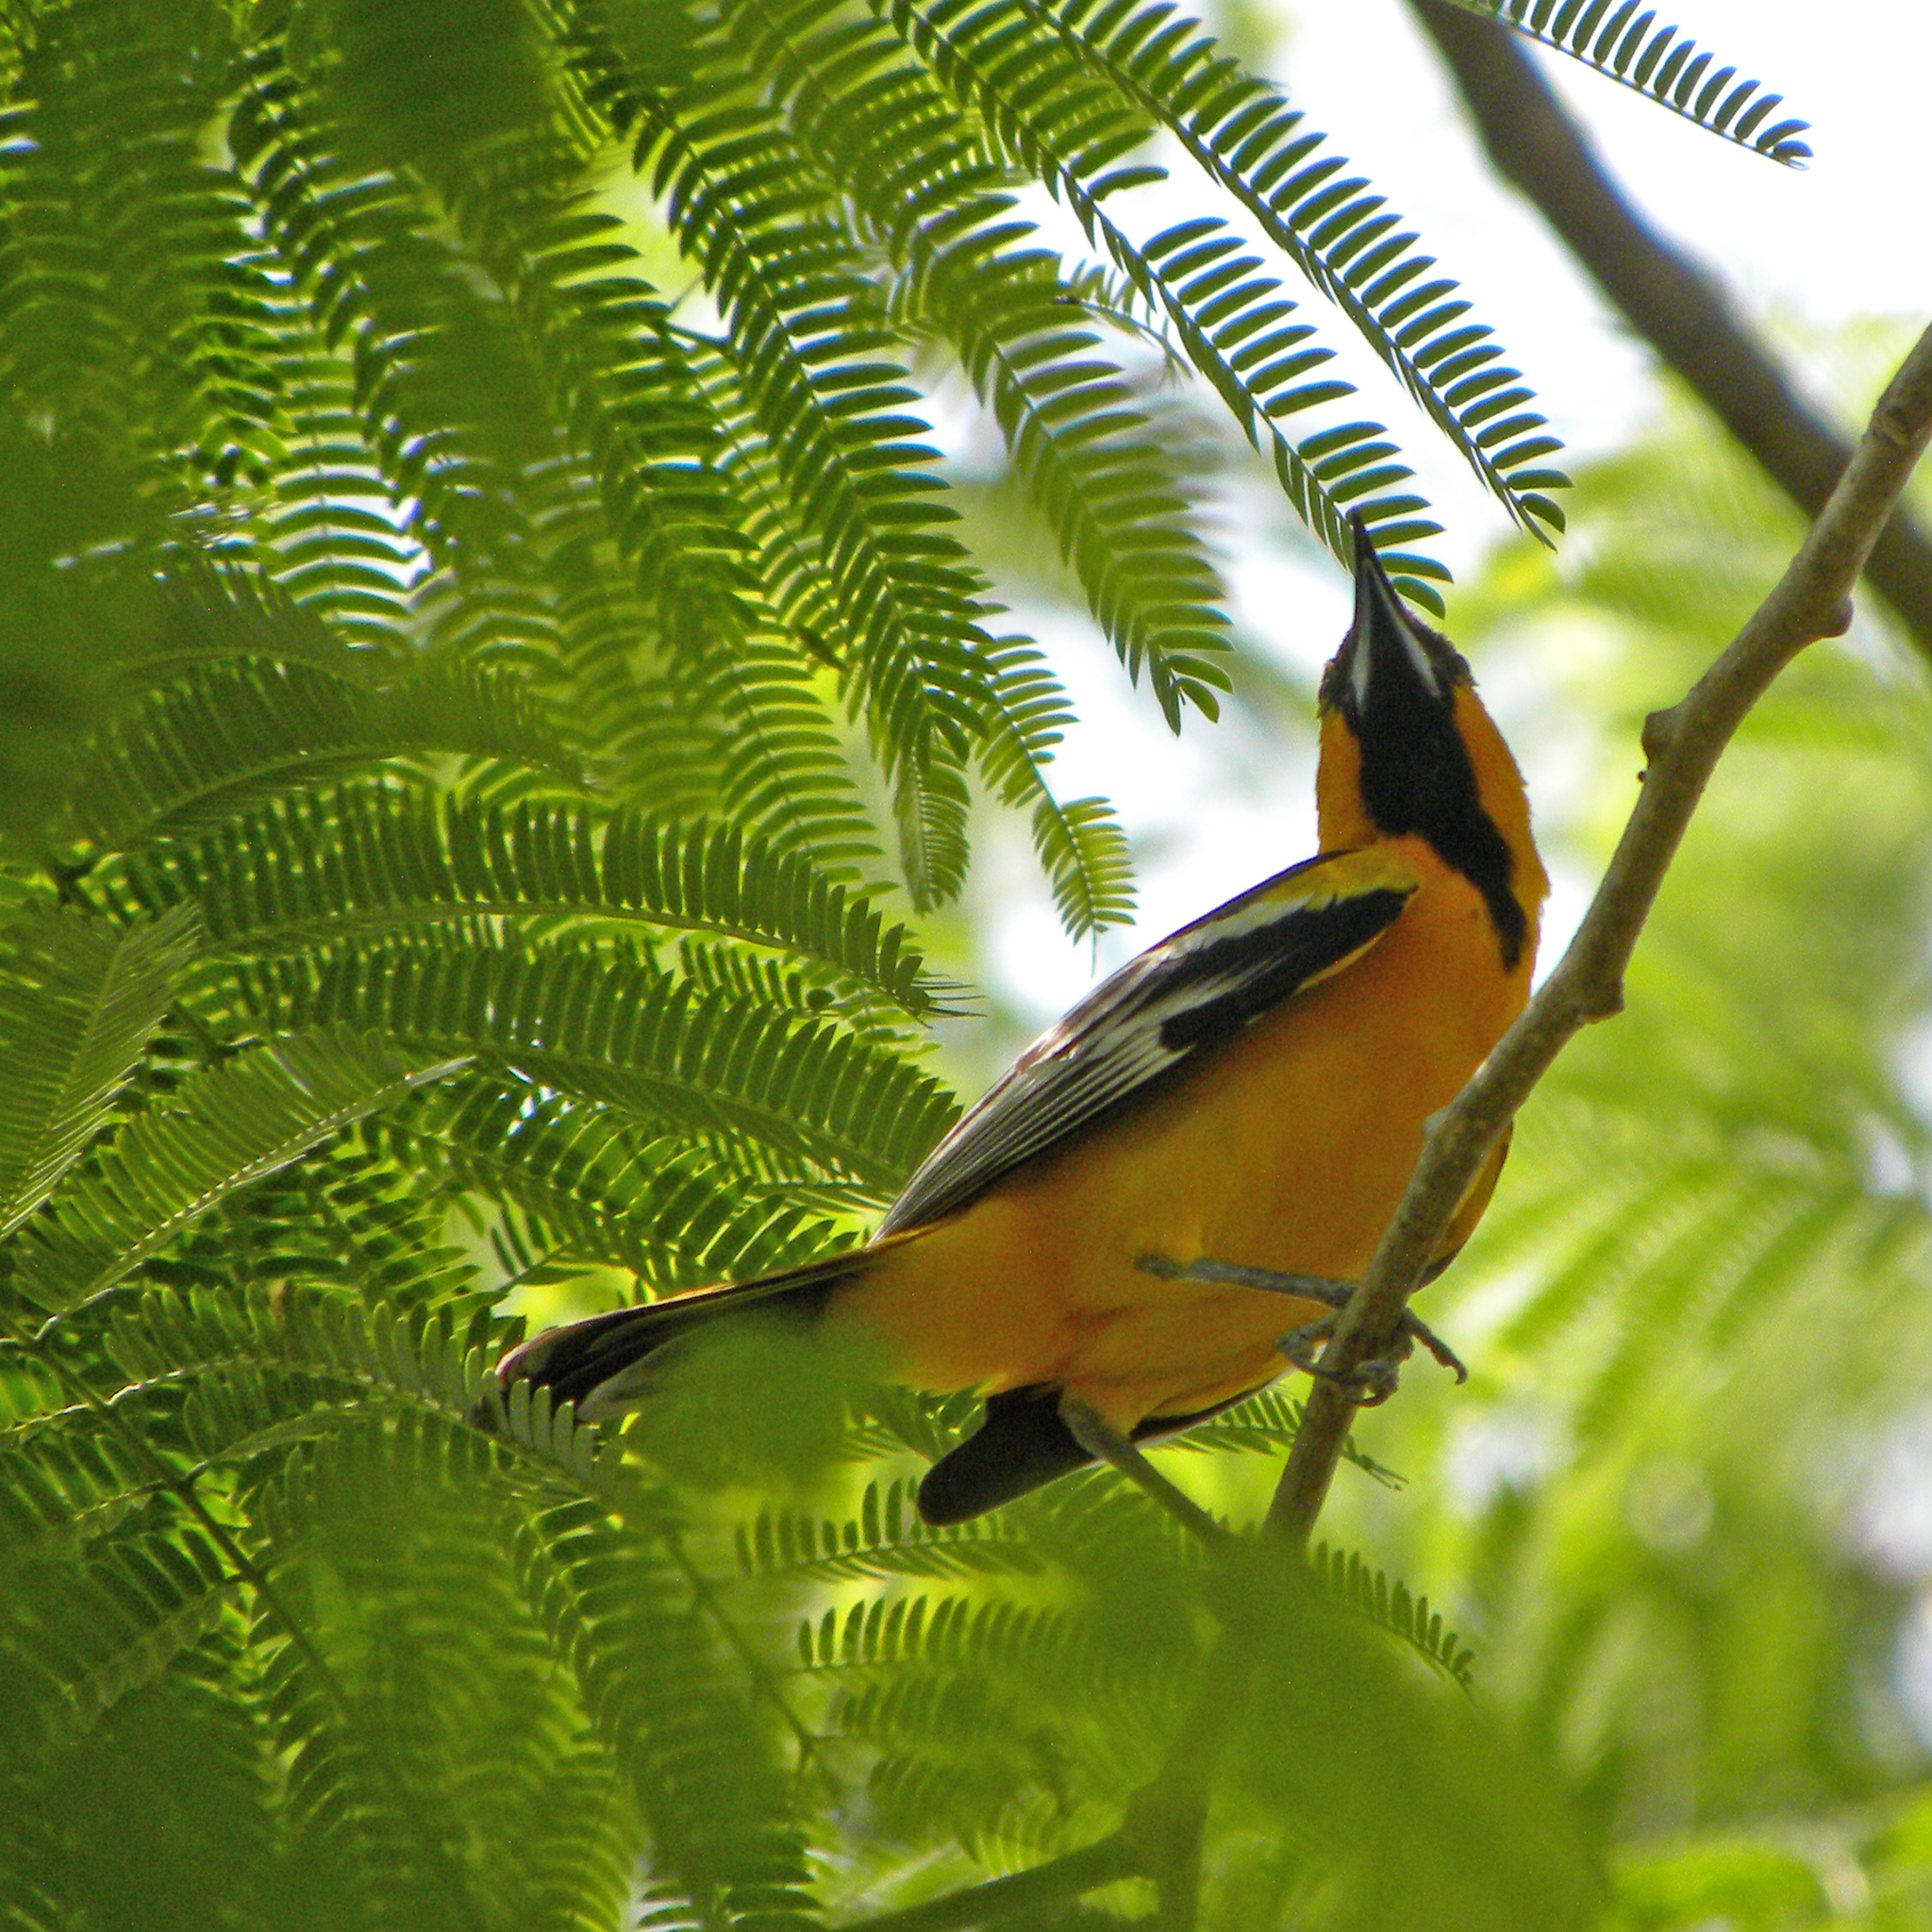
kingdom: Animalia
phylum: Chordata
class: Aves
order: Passeriformes
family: Icteridae
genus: Icterus
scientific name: Icterus pustulatus
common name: Streak-backed oriole
